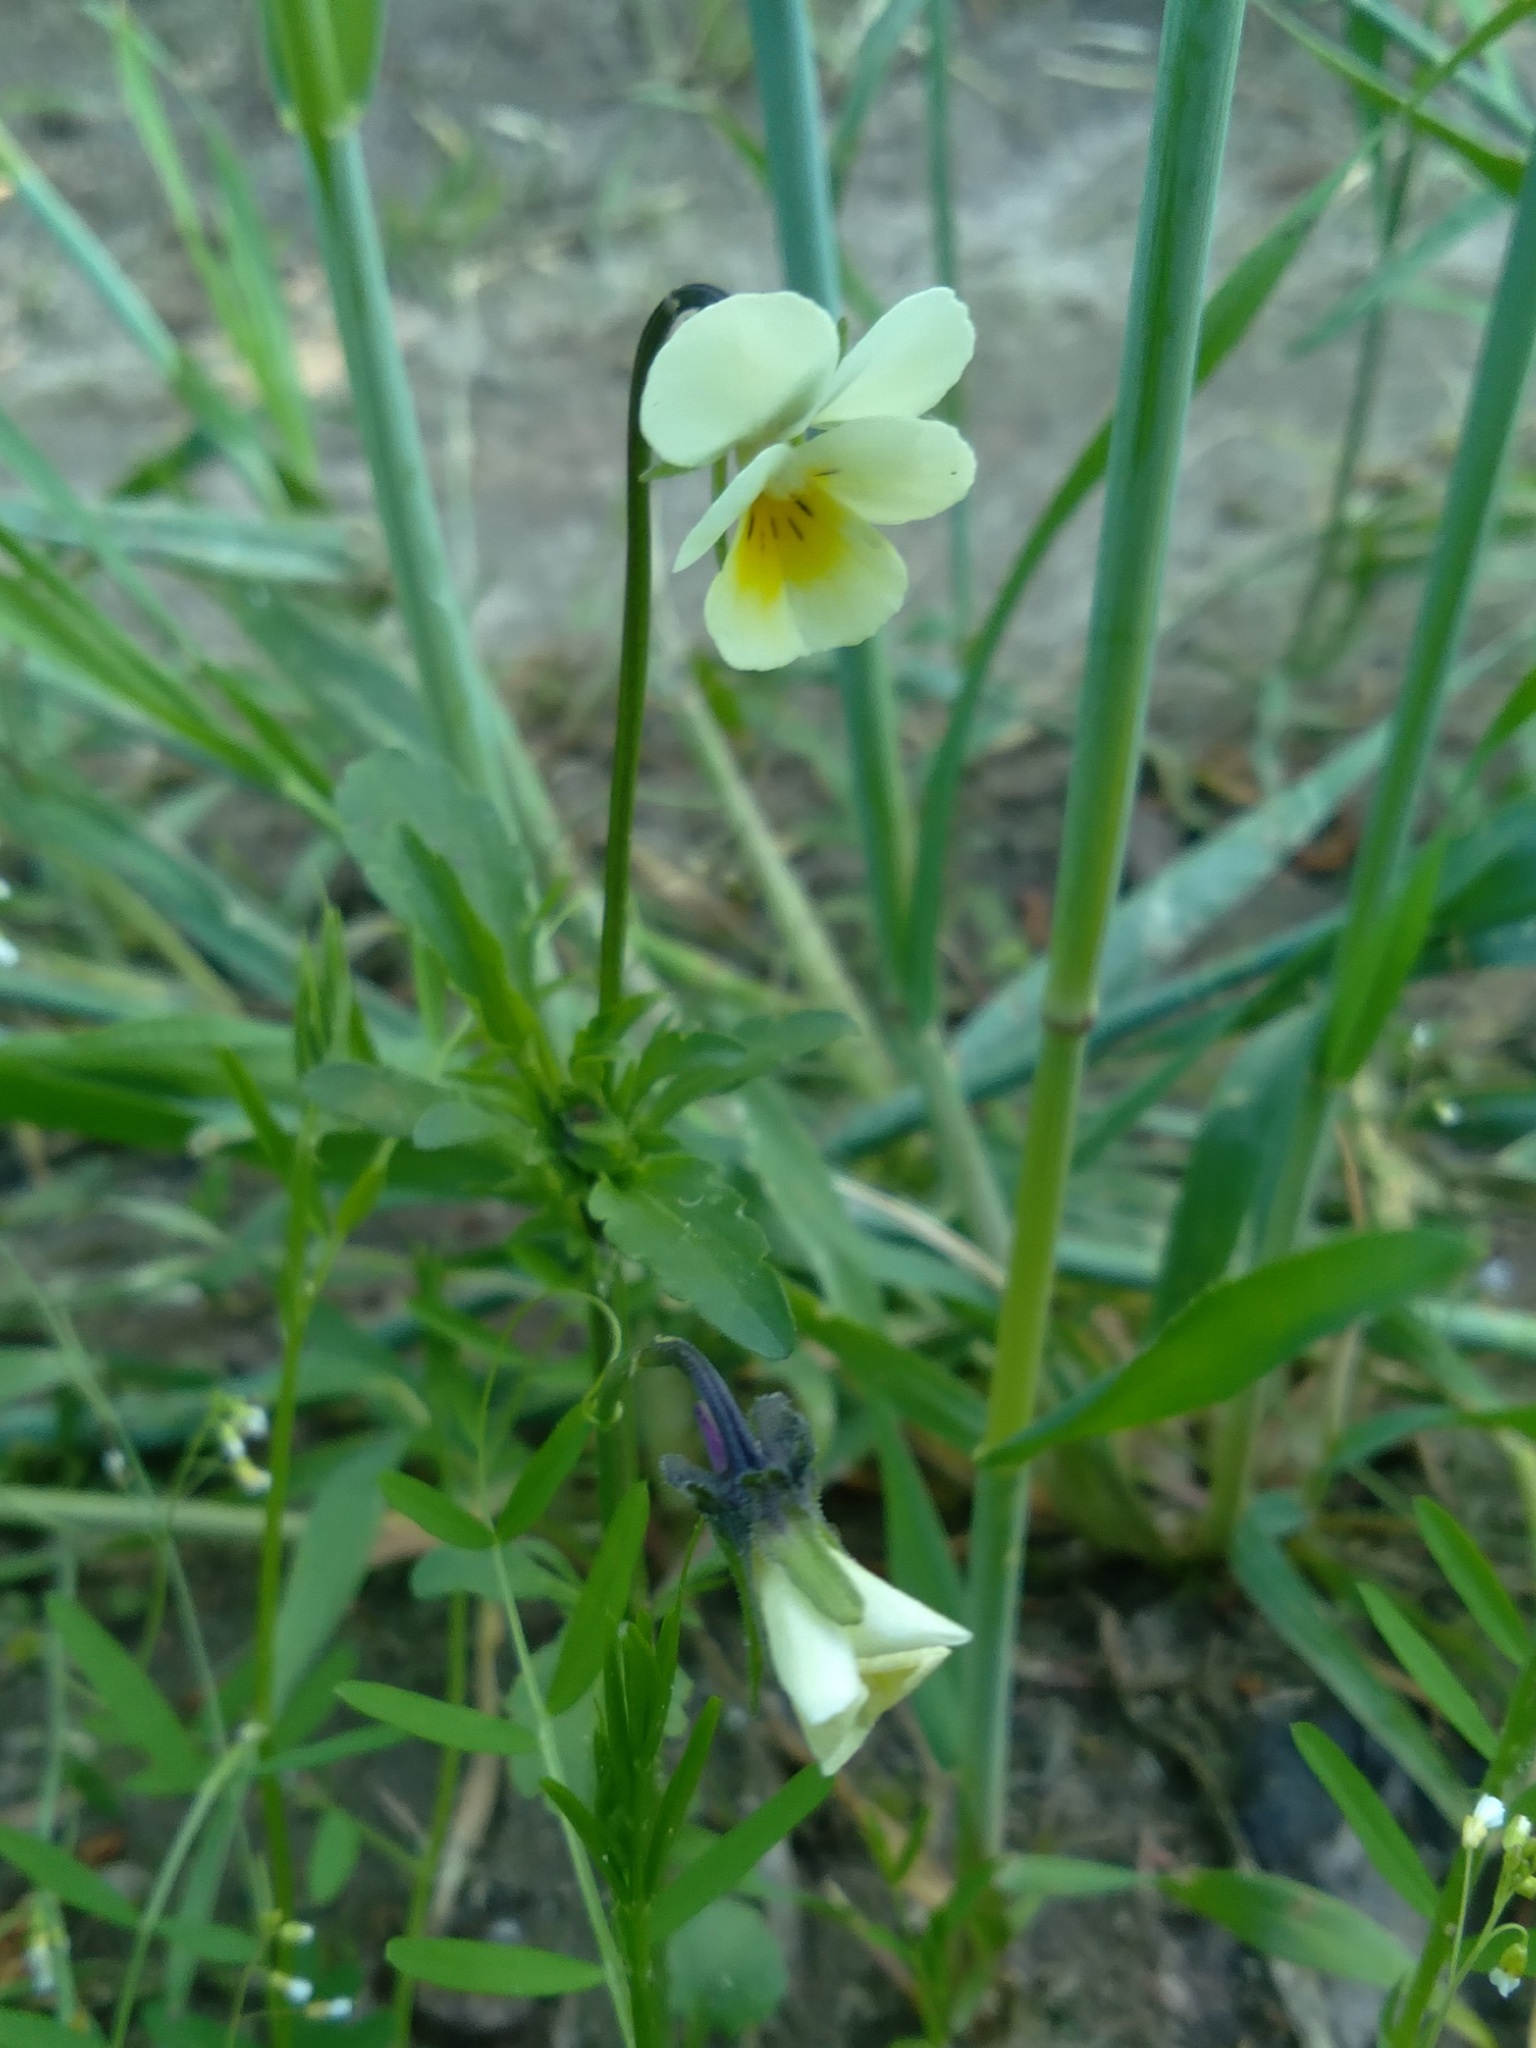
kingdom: Plantae
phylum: Tracheophyta
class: Magnoliopsida
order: Malpighiales
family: Violaceae
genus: Viola
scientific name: Viola arvensis
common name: Field pansy
